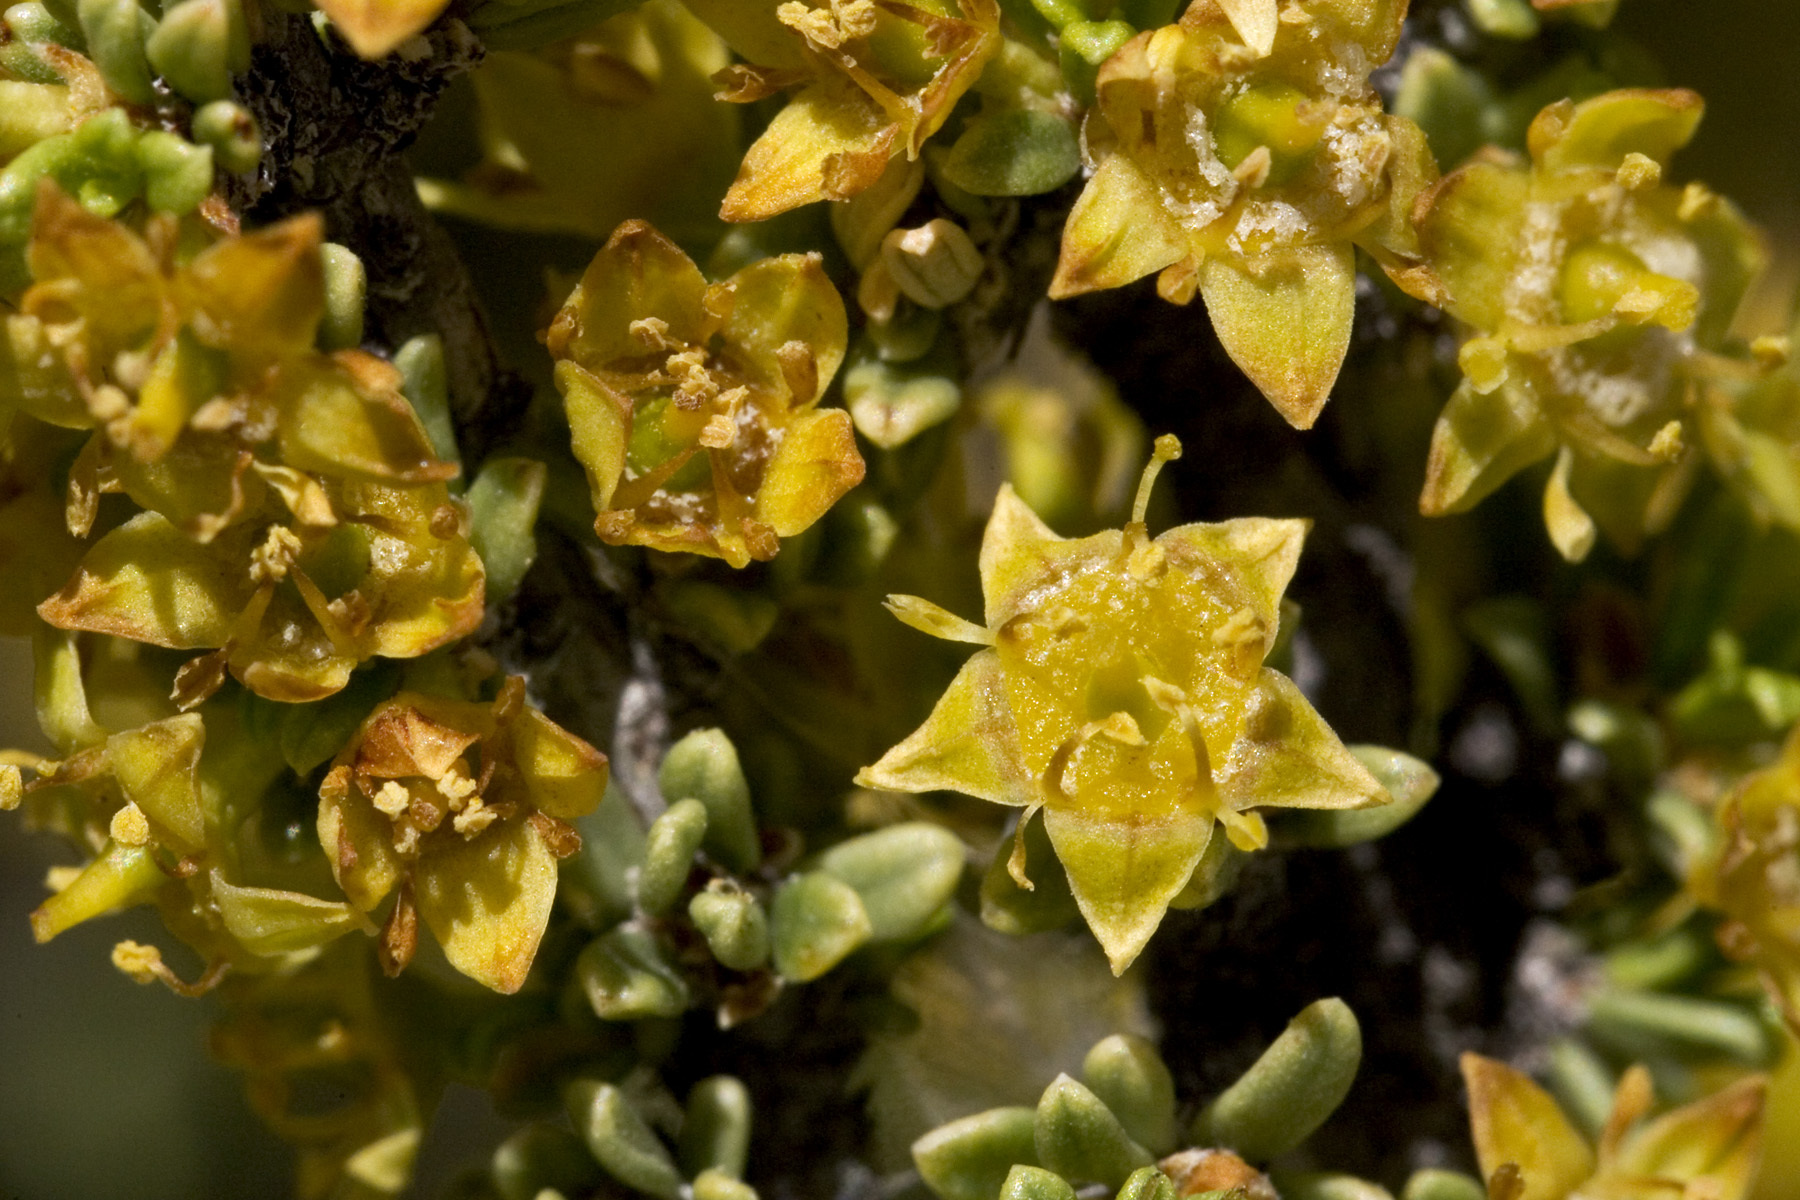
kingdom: Plantae
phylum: Tracheophyta
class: Magnoliopsida
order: Rosales
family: Rhamnaceae
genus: Condalia
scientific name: Condalia ericoides
